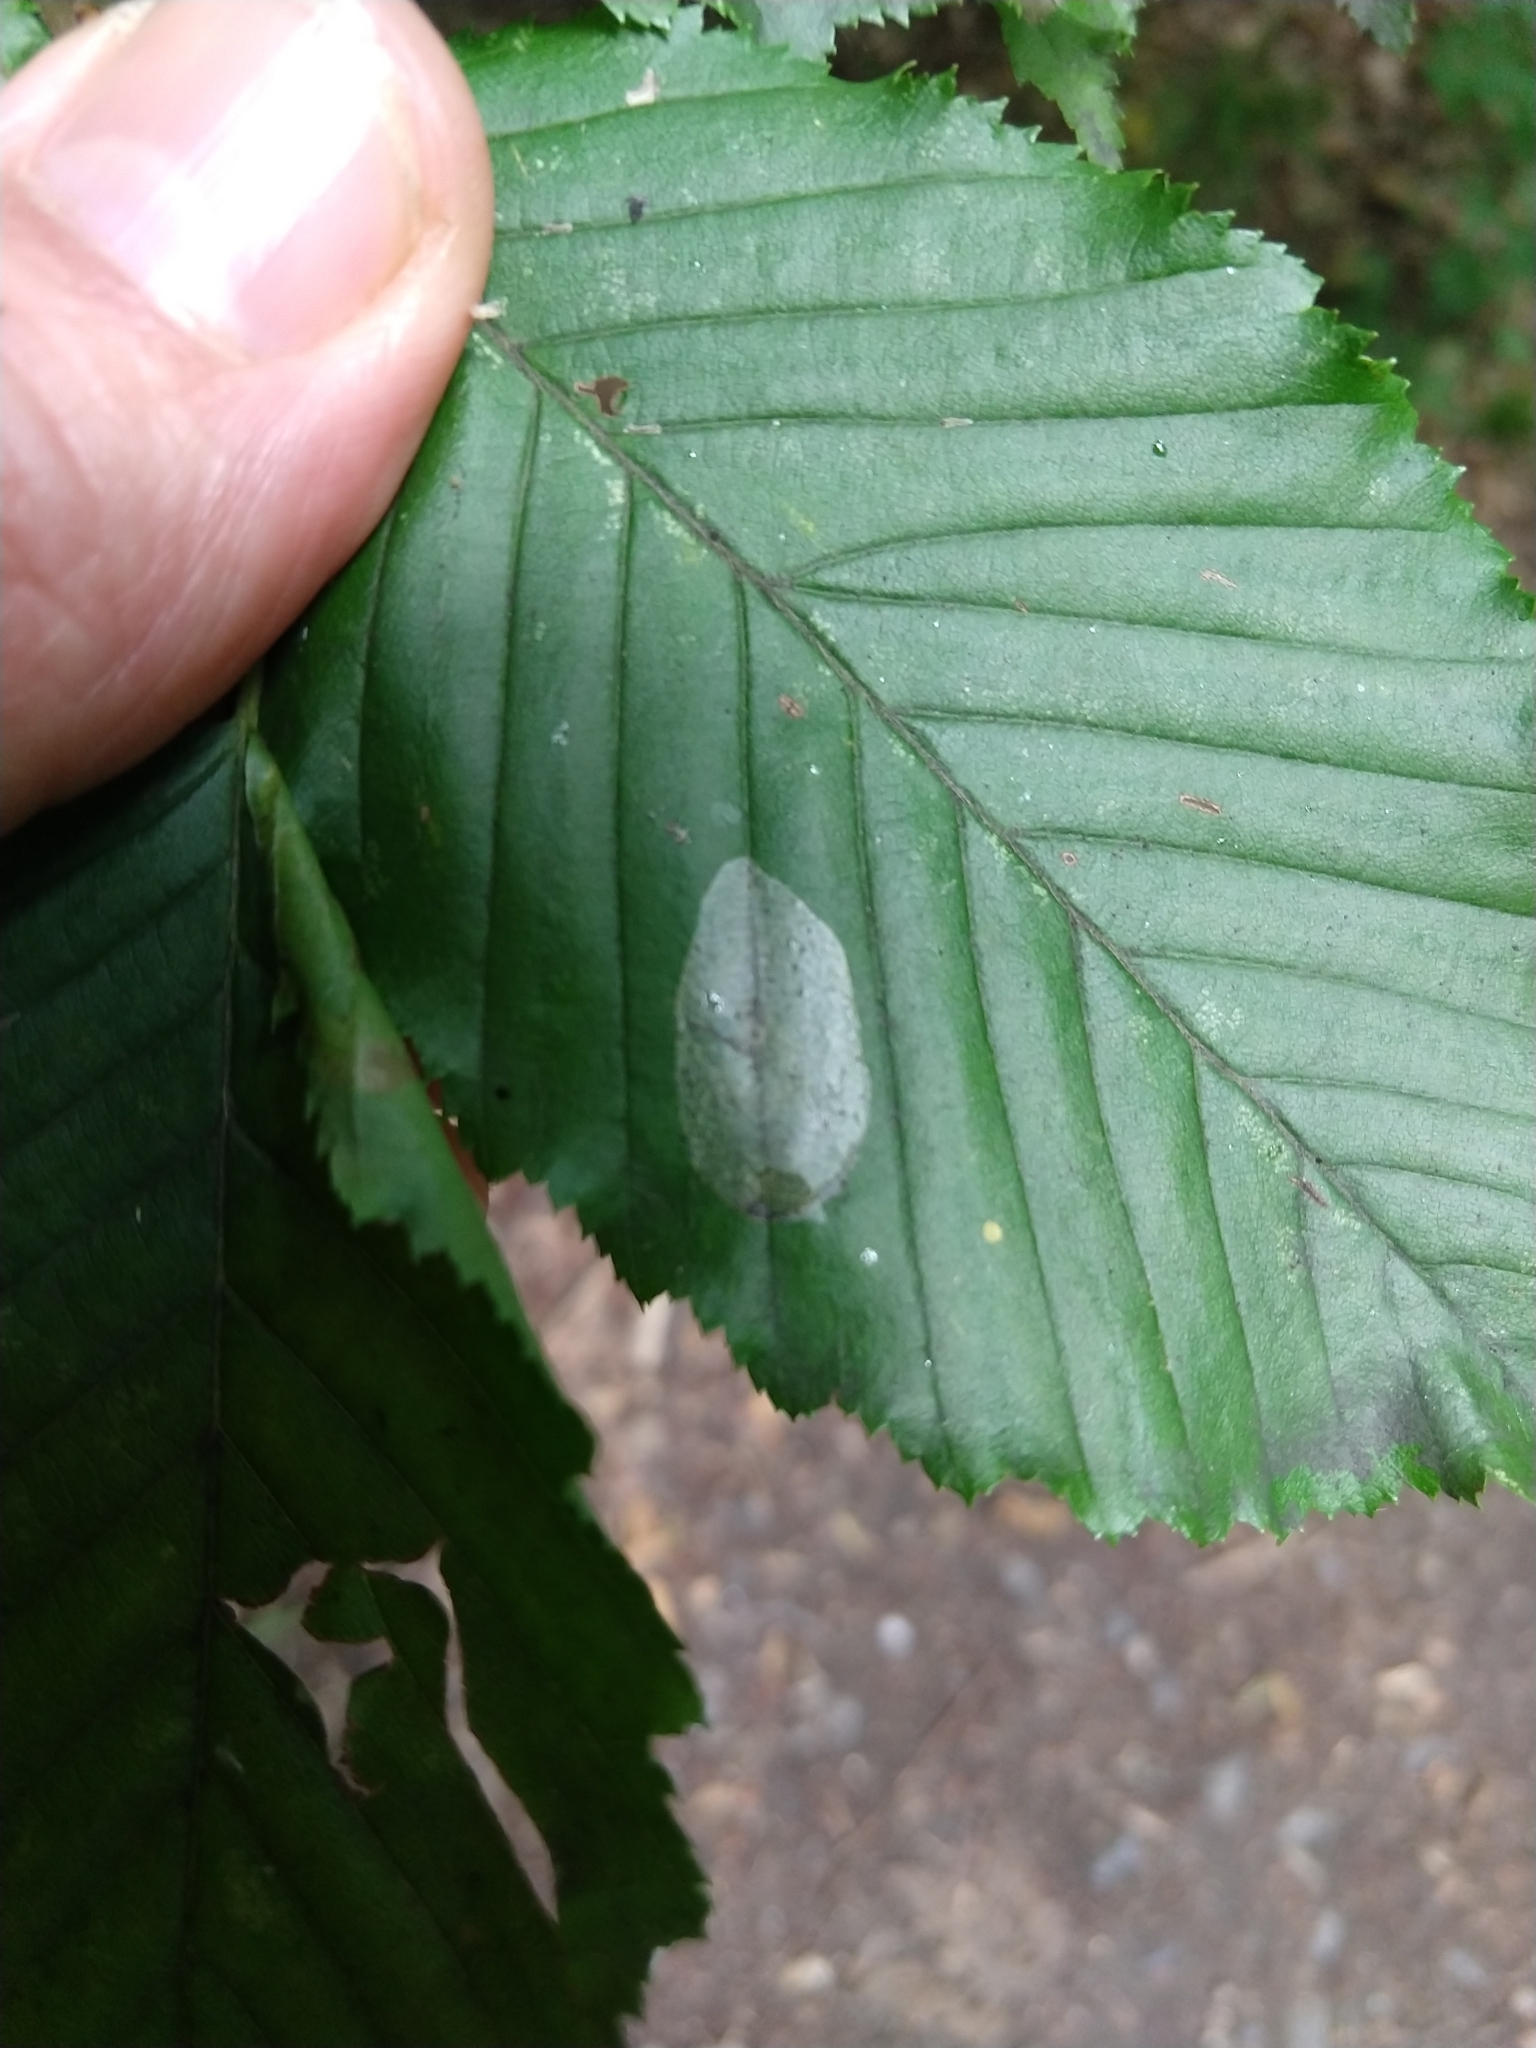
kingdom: Animalia
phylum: Arthropoda
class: Insecta
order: Lepidoptera
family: Gracillariidae
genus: Phyllonorycter
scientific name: Phyllonorycter esperella
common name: Dark hornbeam midget
